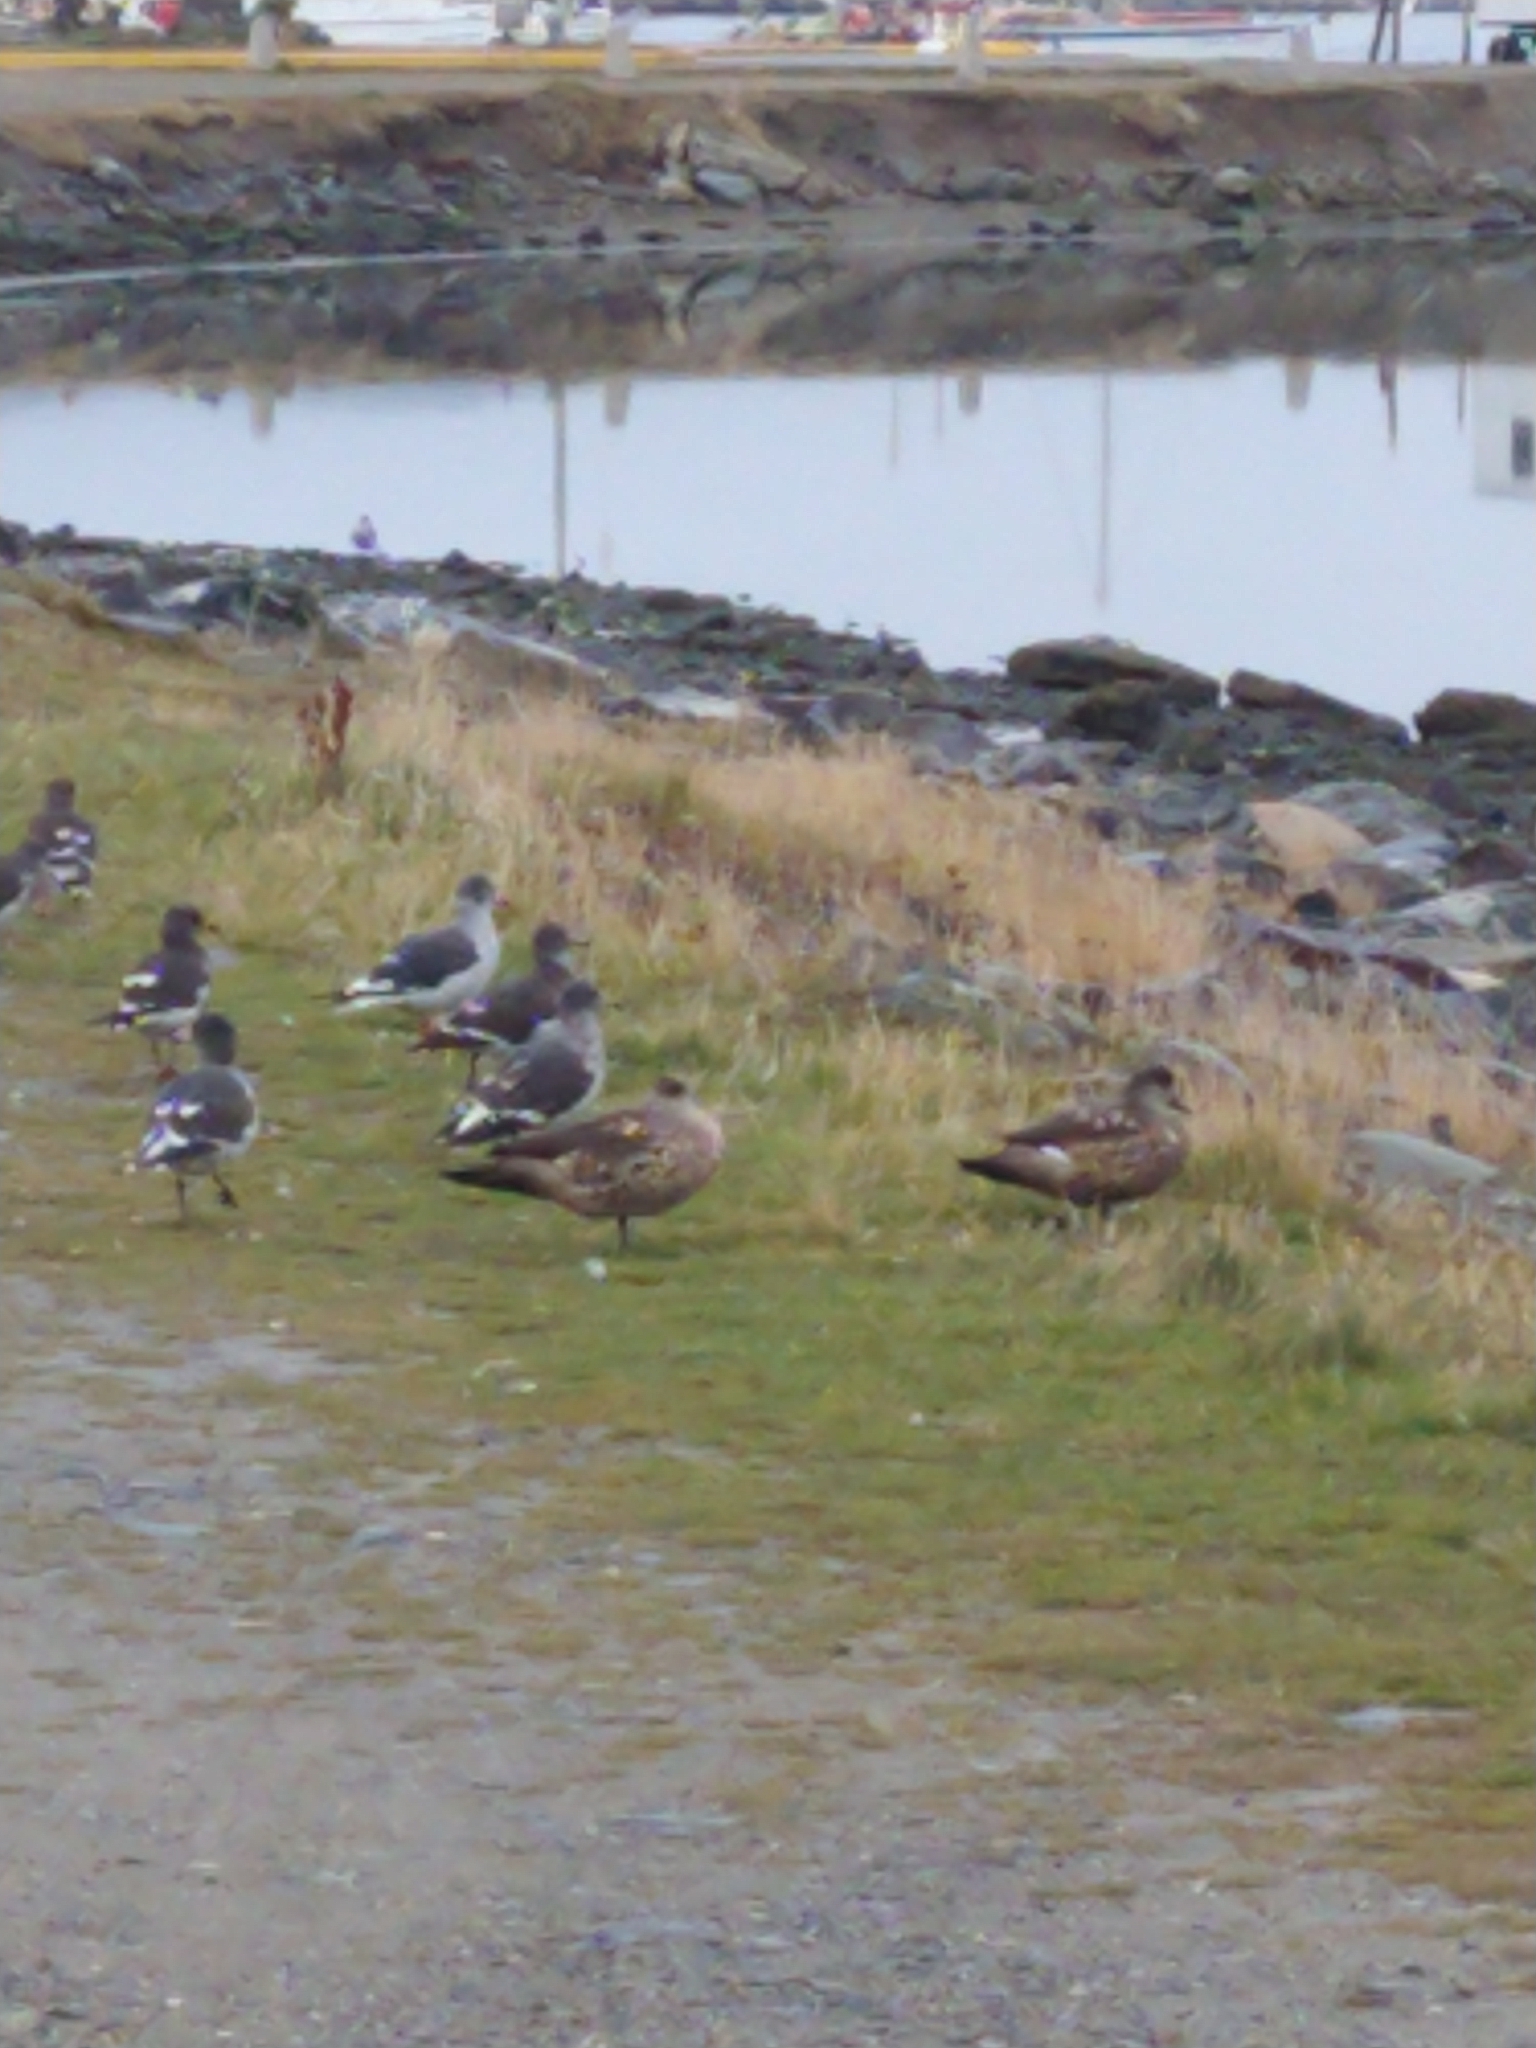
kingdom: Animalia
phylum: Chordata
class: Aves
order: Anseriformes
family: Anatidae
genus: Lophonetta
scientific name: Lophonetta specularioides
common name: Crested duck
